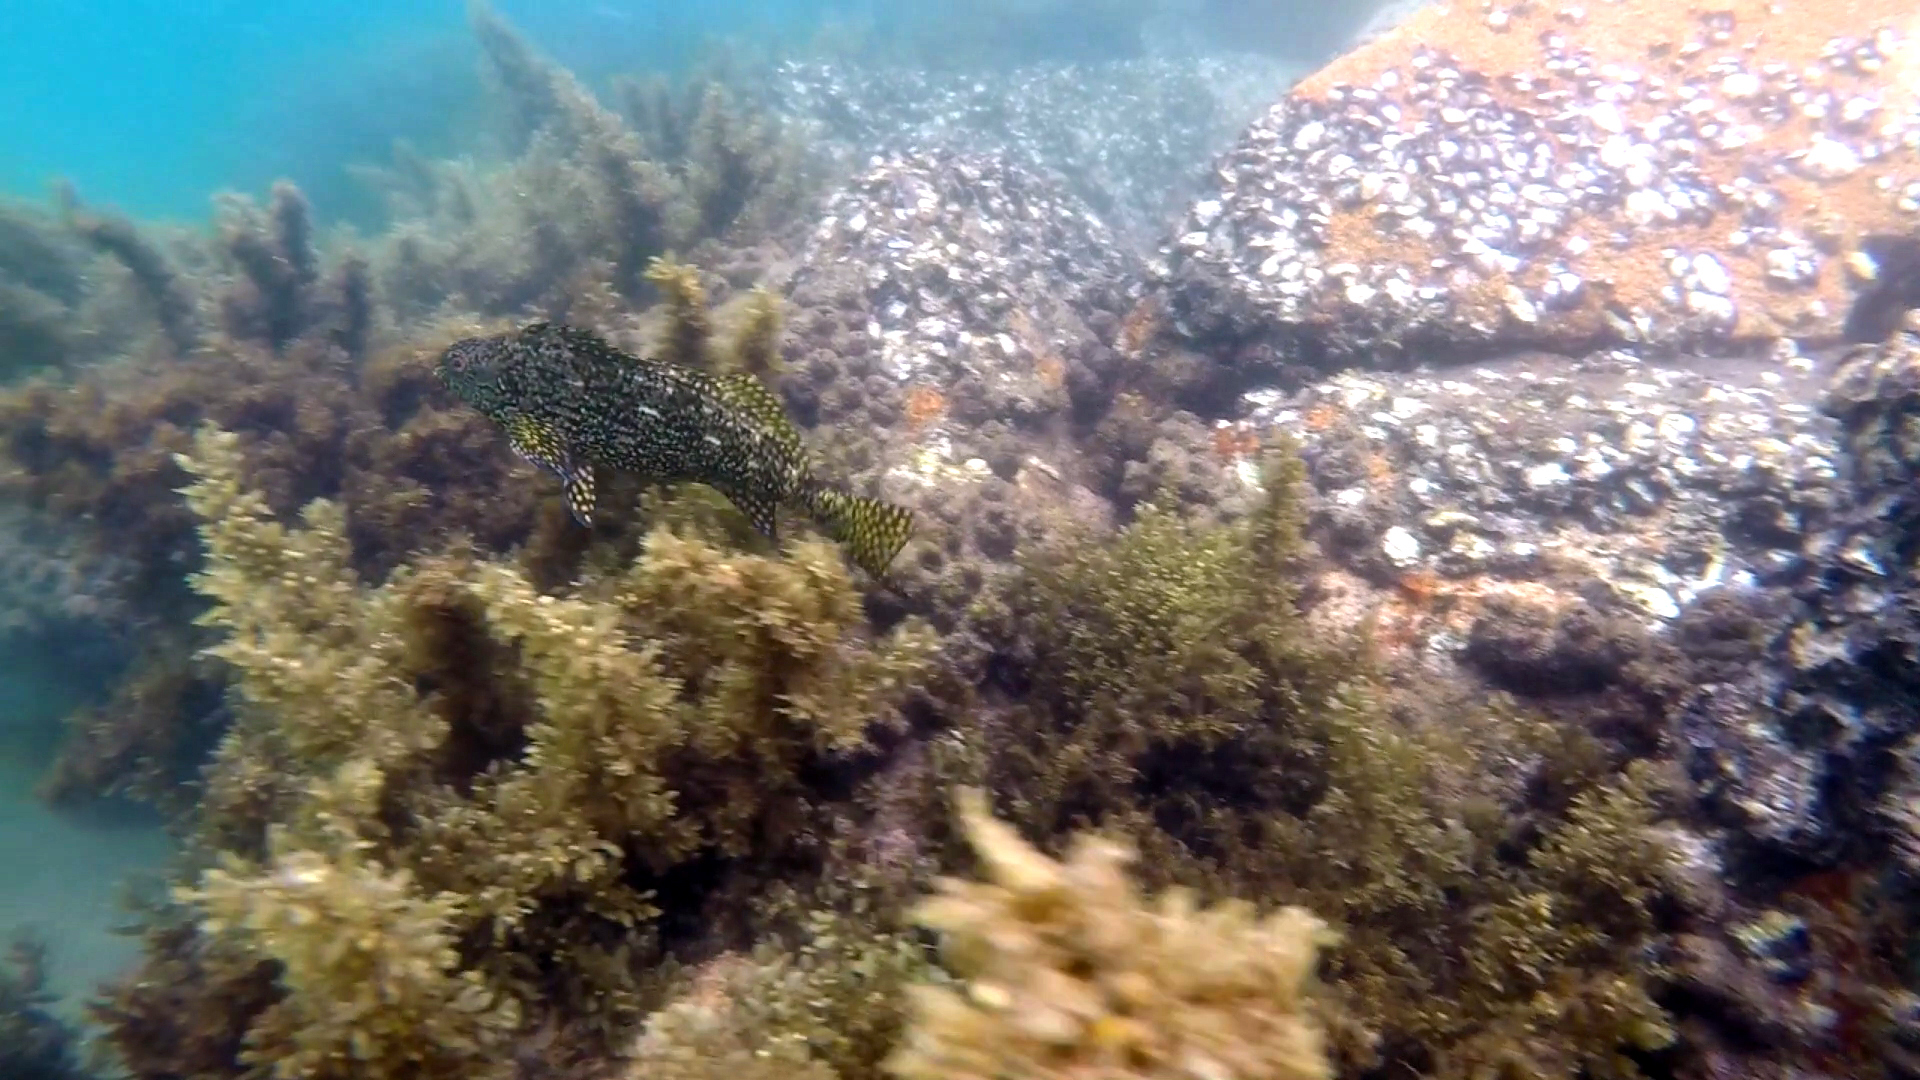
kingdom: Animalia
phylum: Chordata
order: Perciformes
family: Aplodactylidae
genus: Aplodactylus
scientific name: Aplodactylus lophodon
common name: Cockatoo fish
